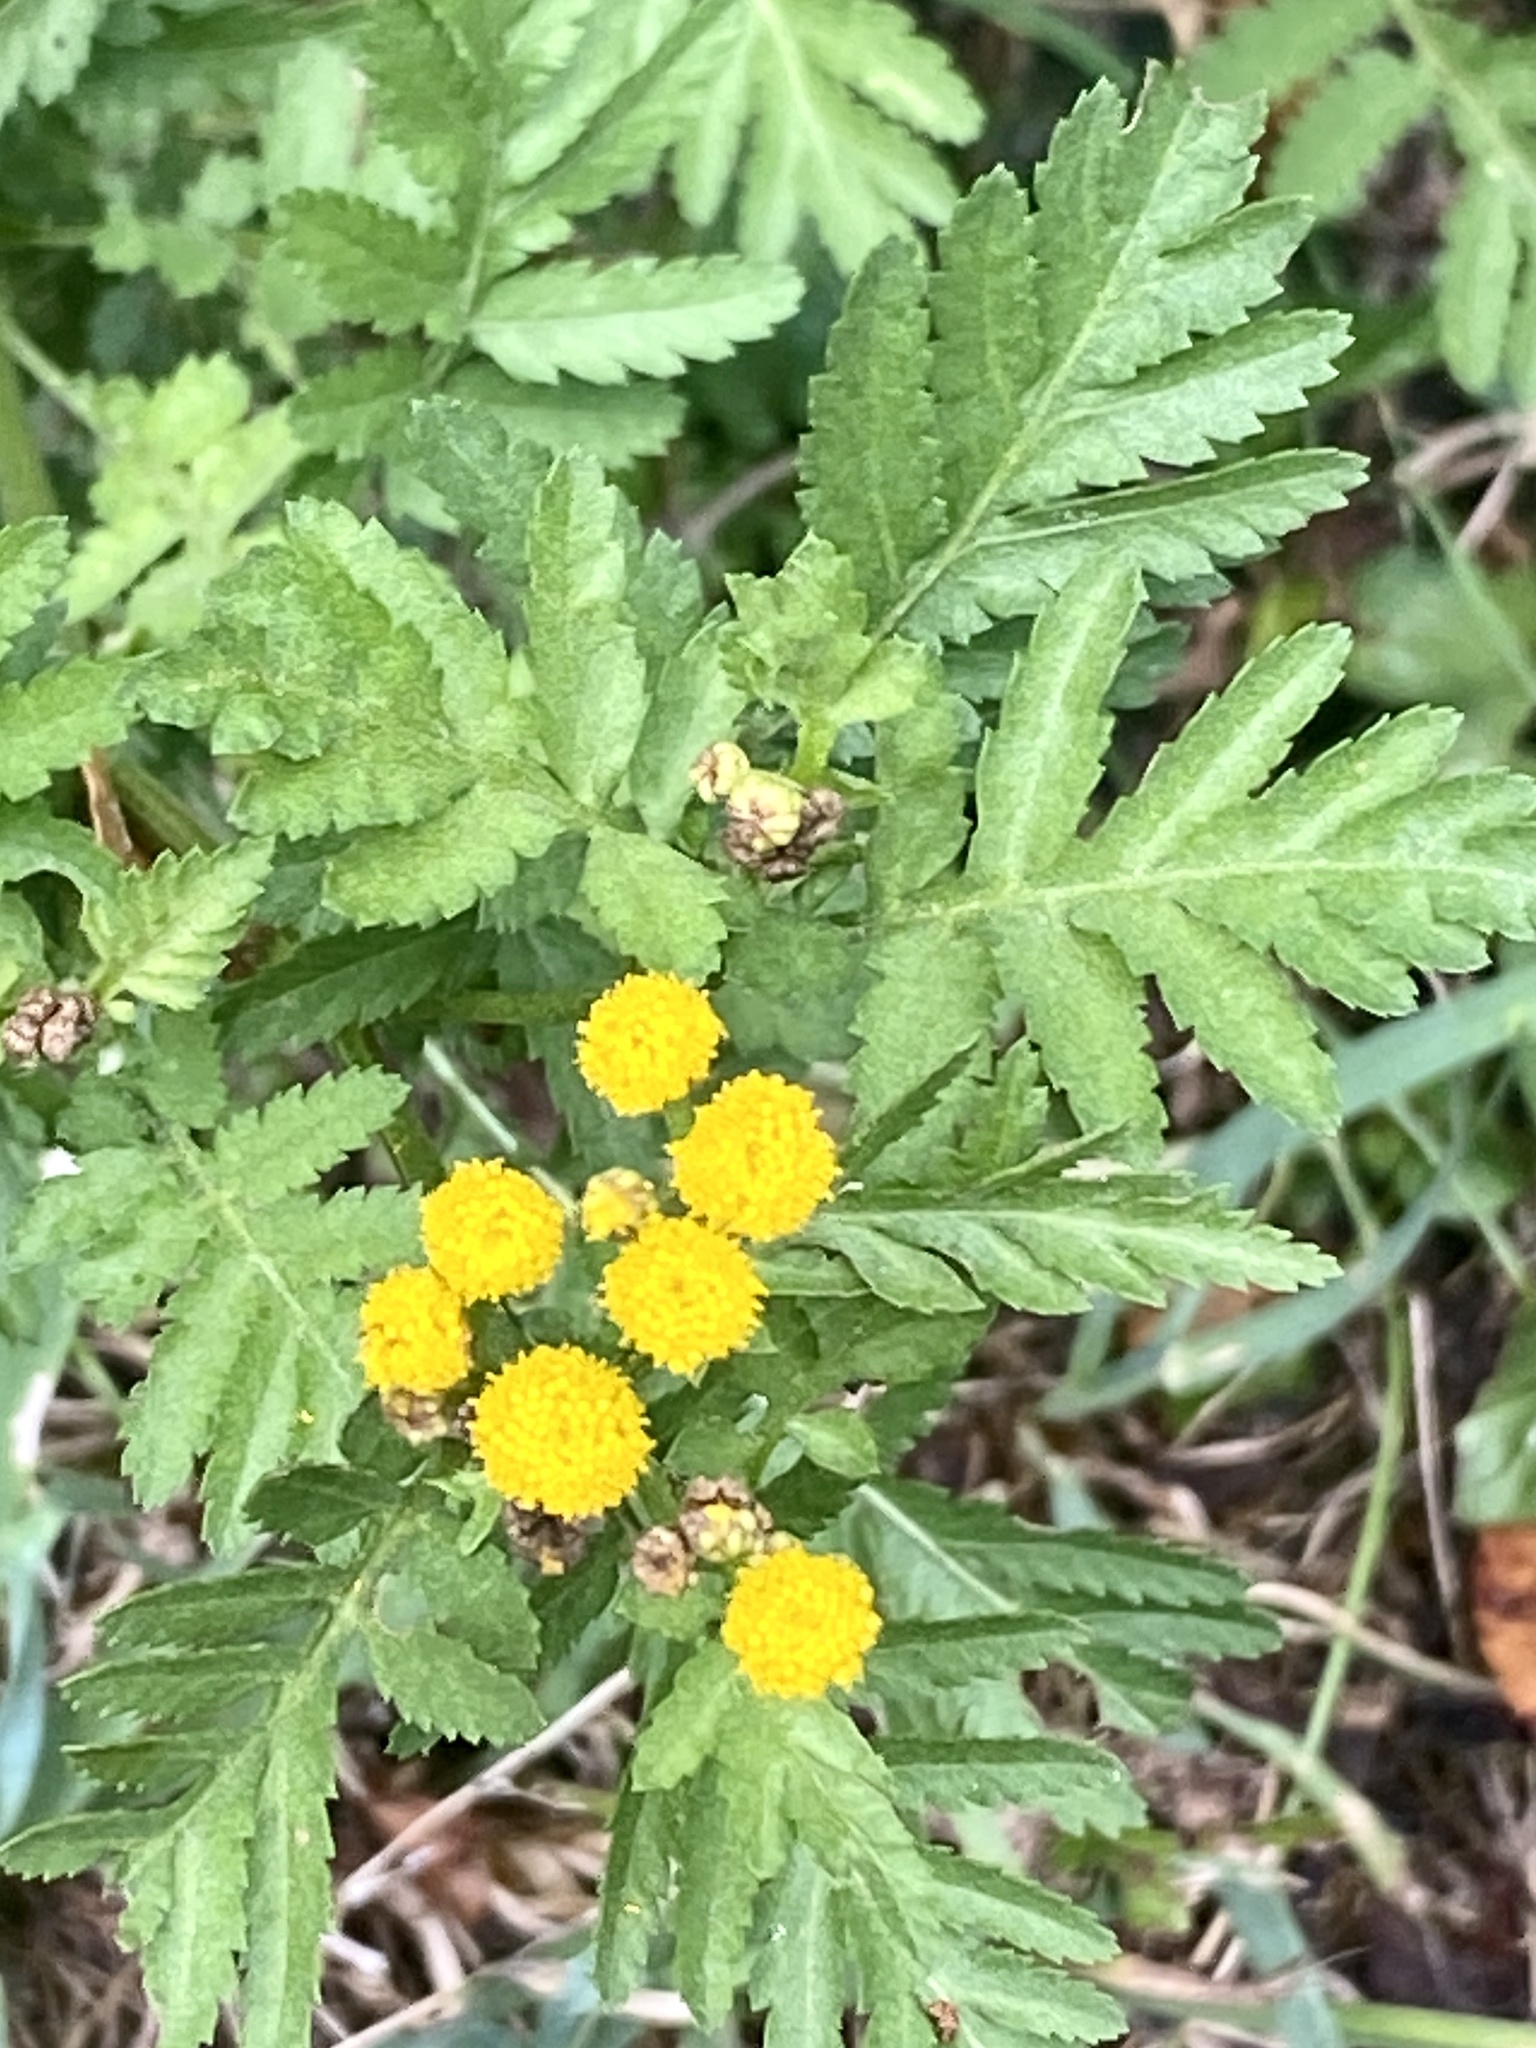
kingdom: Plantae
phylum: Tracheophyta
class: Magnoliopsida
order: Asterales
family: Asteraceae
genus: Tanacetum
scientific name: Tanacetum vulgare
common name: Common tansy
